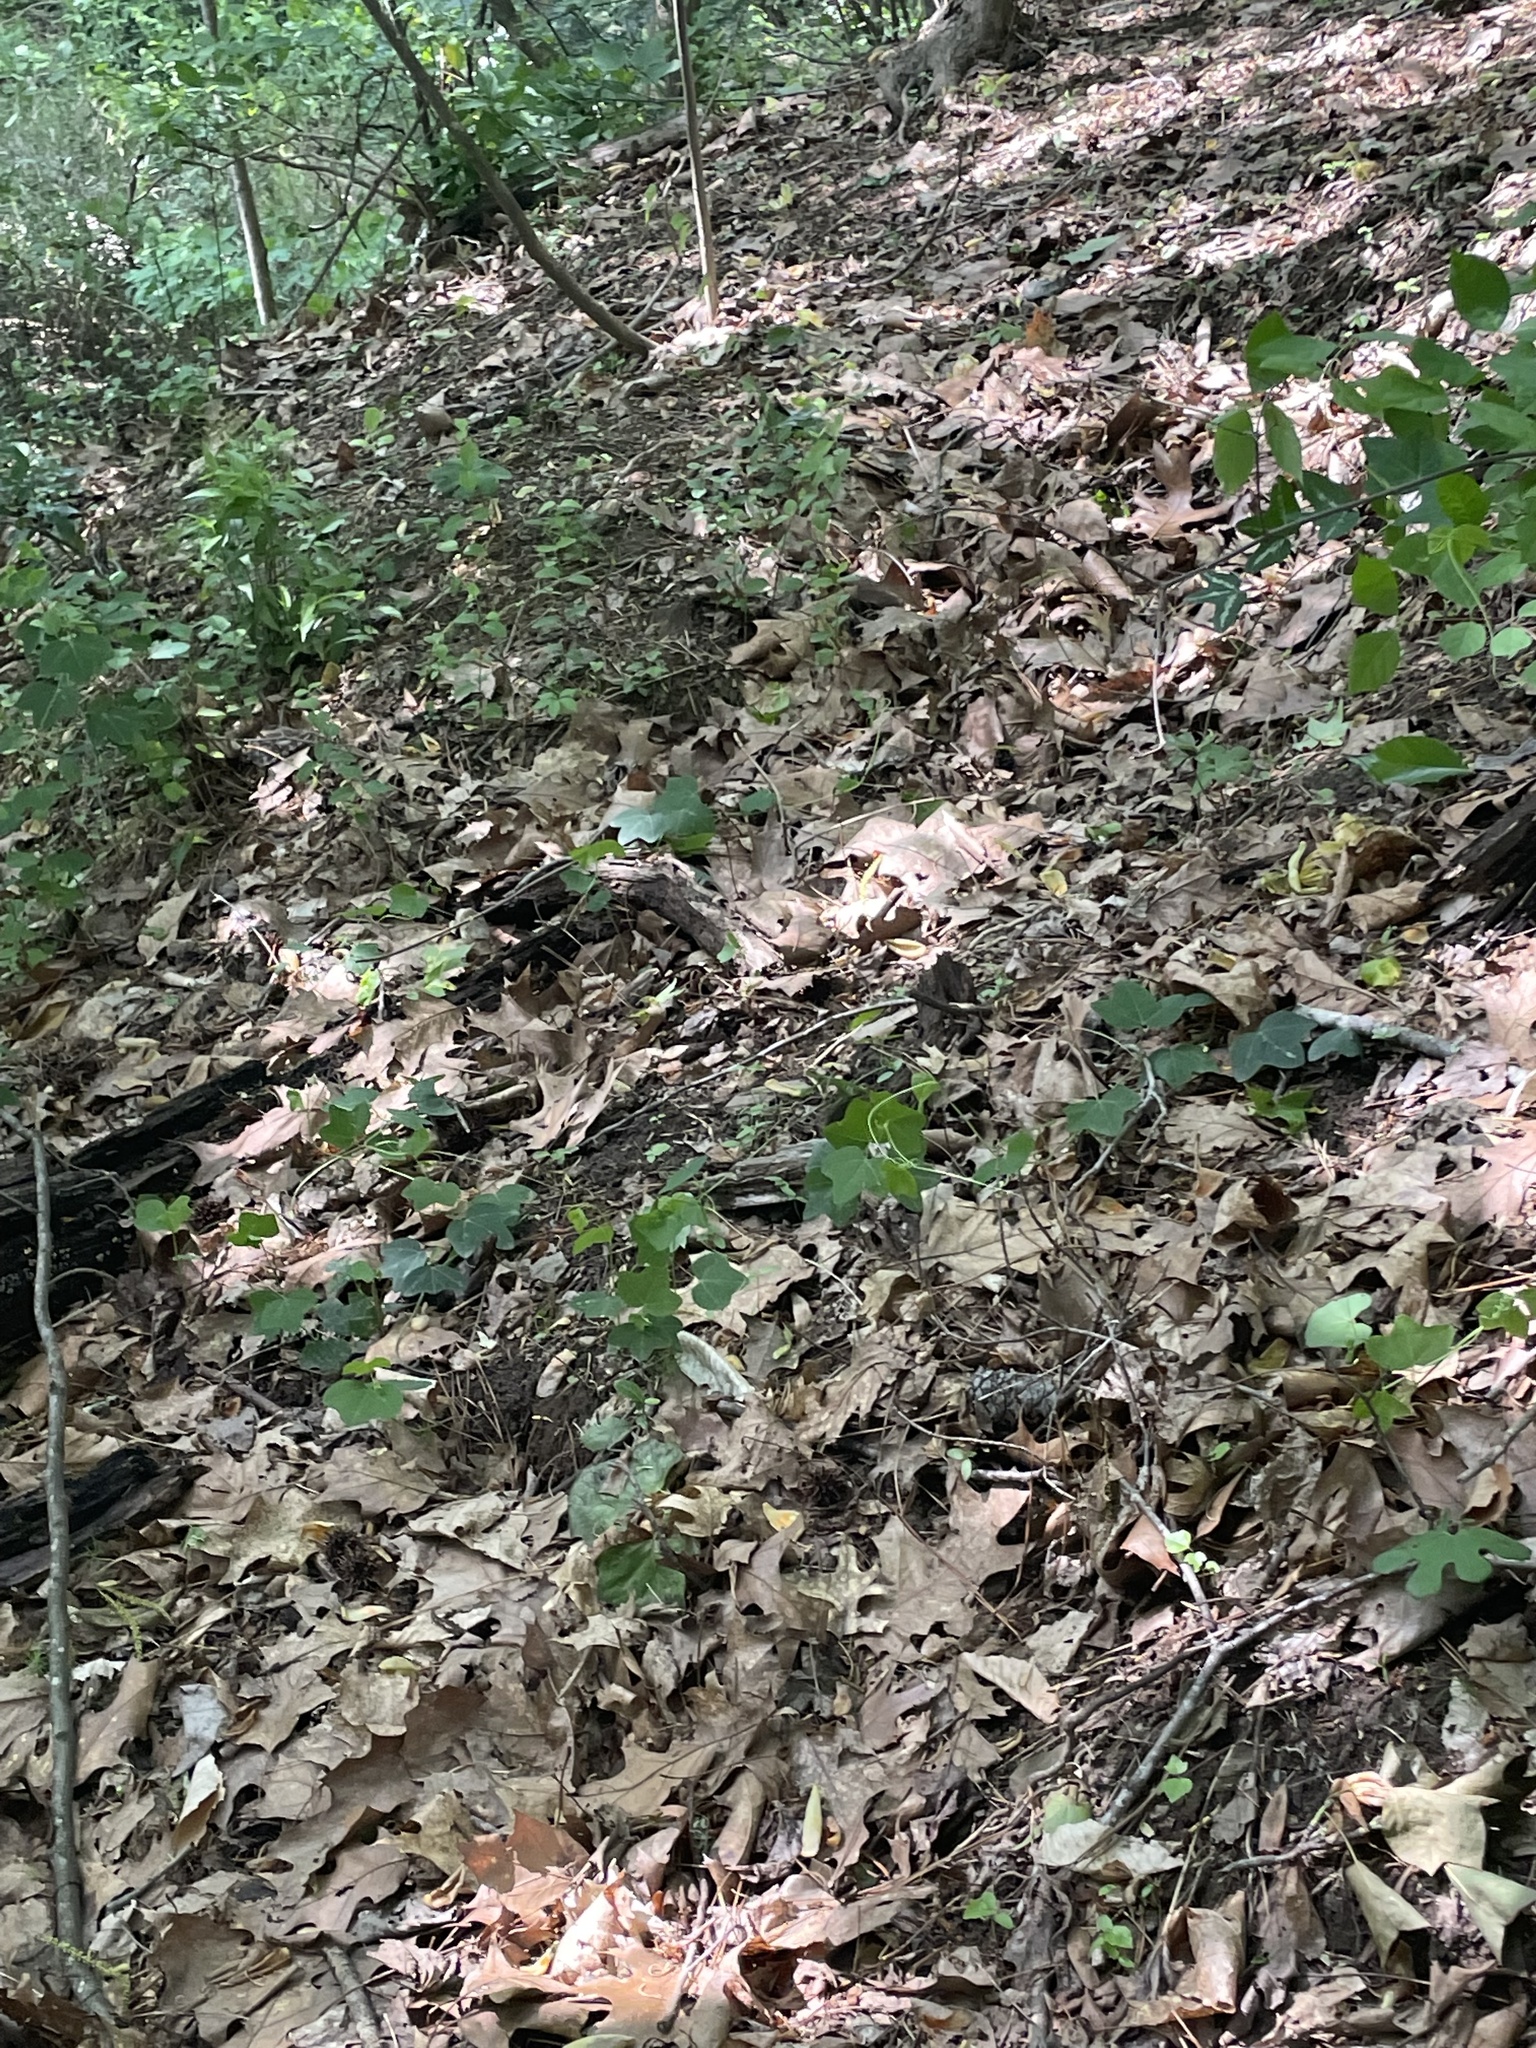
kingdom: Plantae
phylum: Tracheophyta
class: Magnoliopsida
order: Malpighiales
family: Passifloraceae
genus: Passiflora
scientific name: Passiflora lutea
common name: Yellow passionflower
